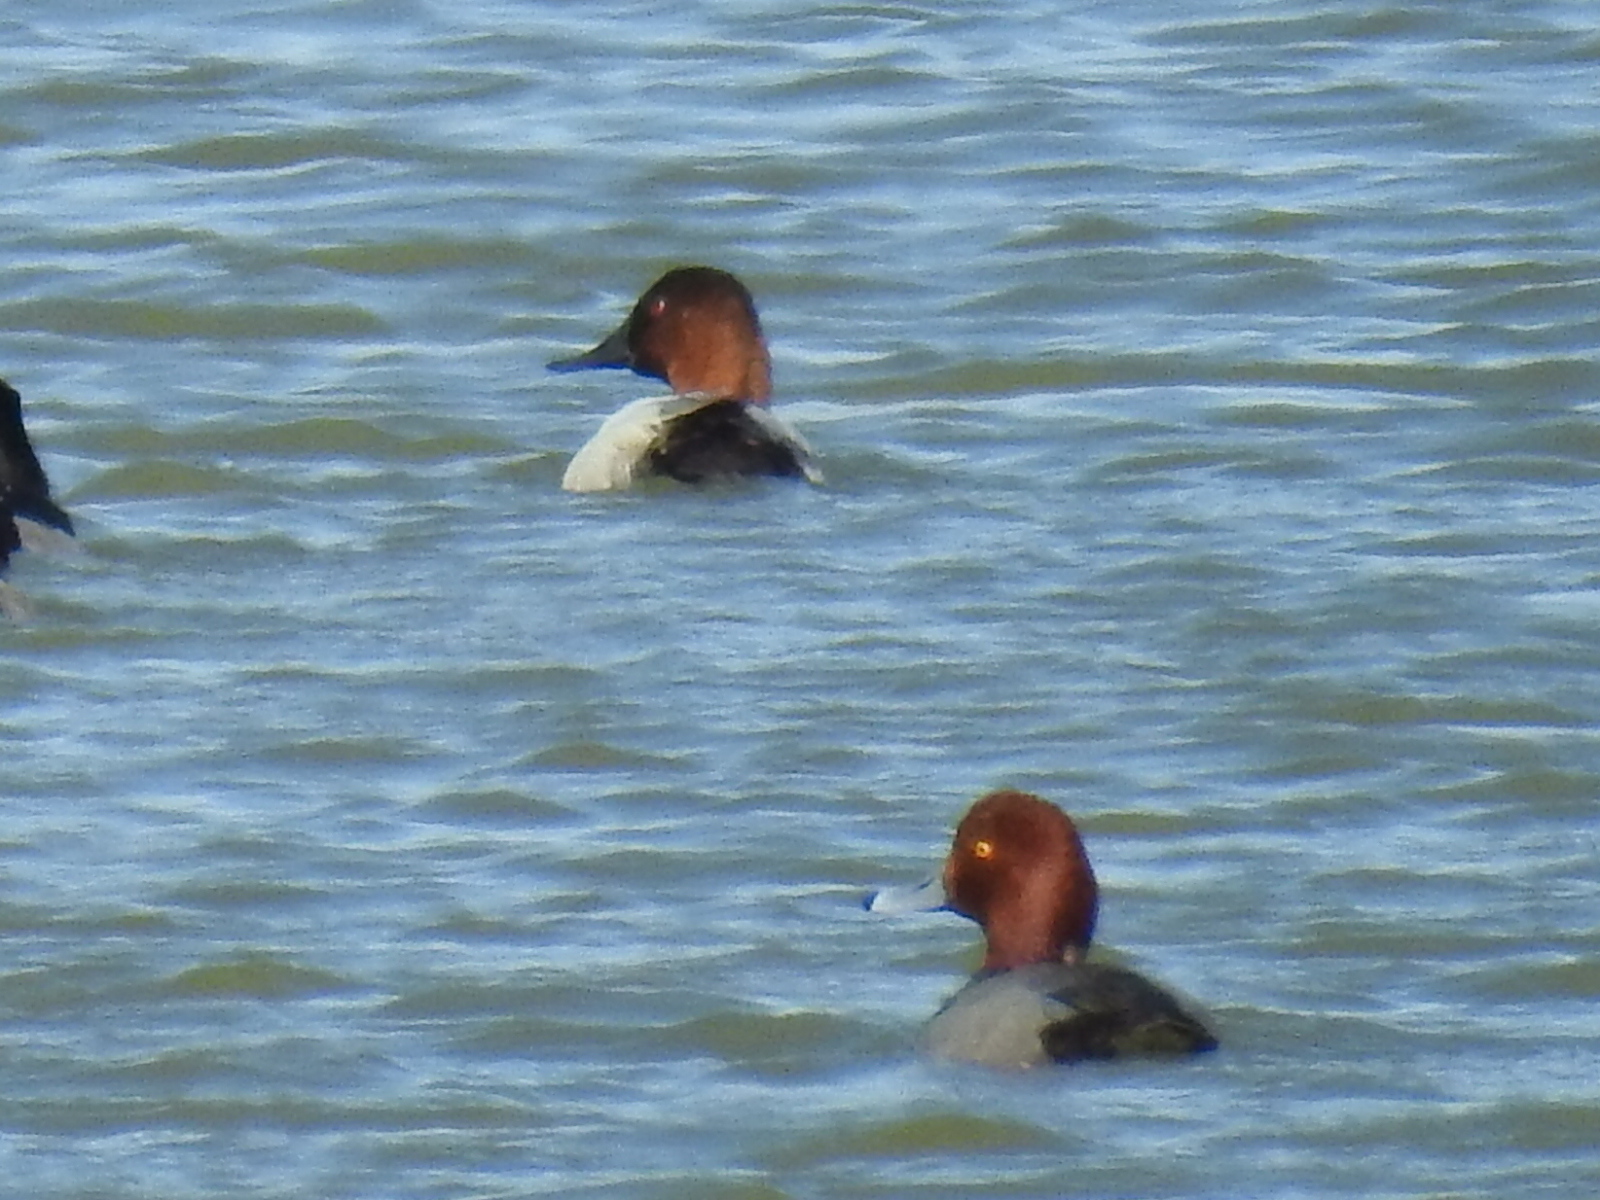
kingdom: Animalia
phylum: Chordata
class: Aves
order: Anseriformes
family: Anatidae
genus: Aythya
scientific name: Aythya valisineria
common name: Canvasback
